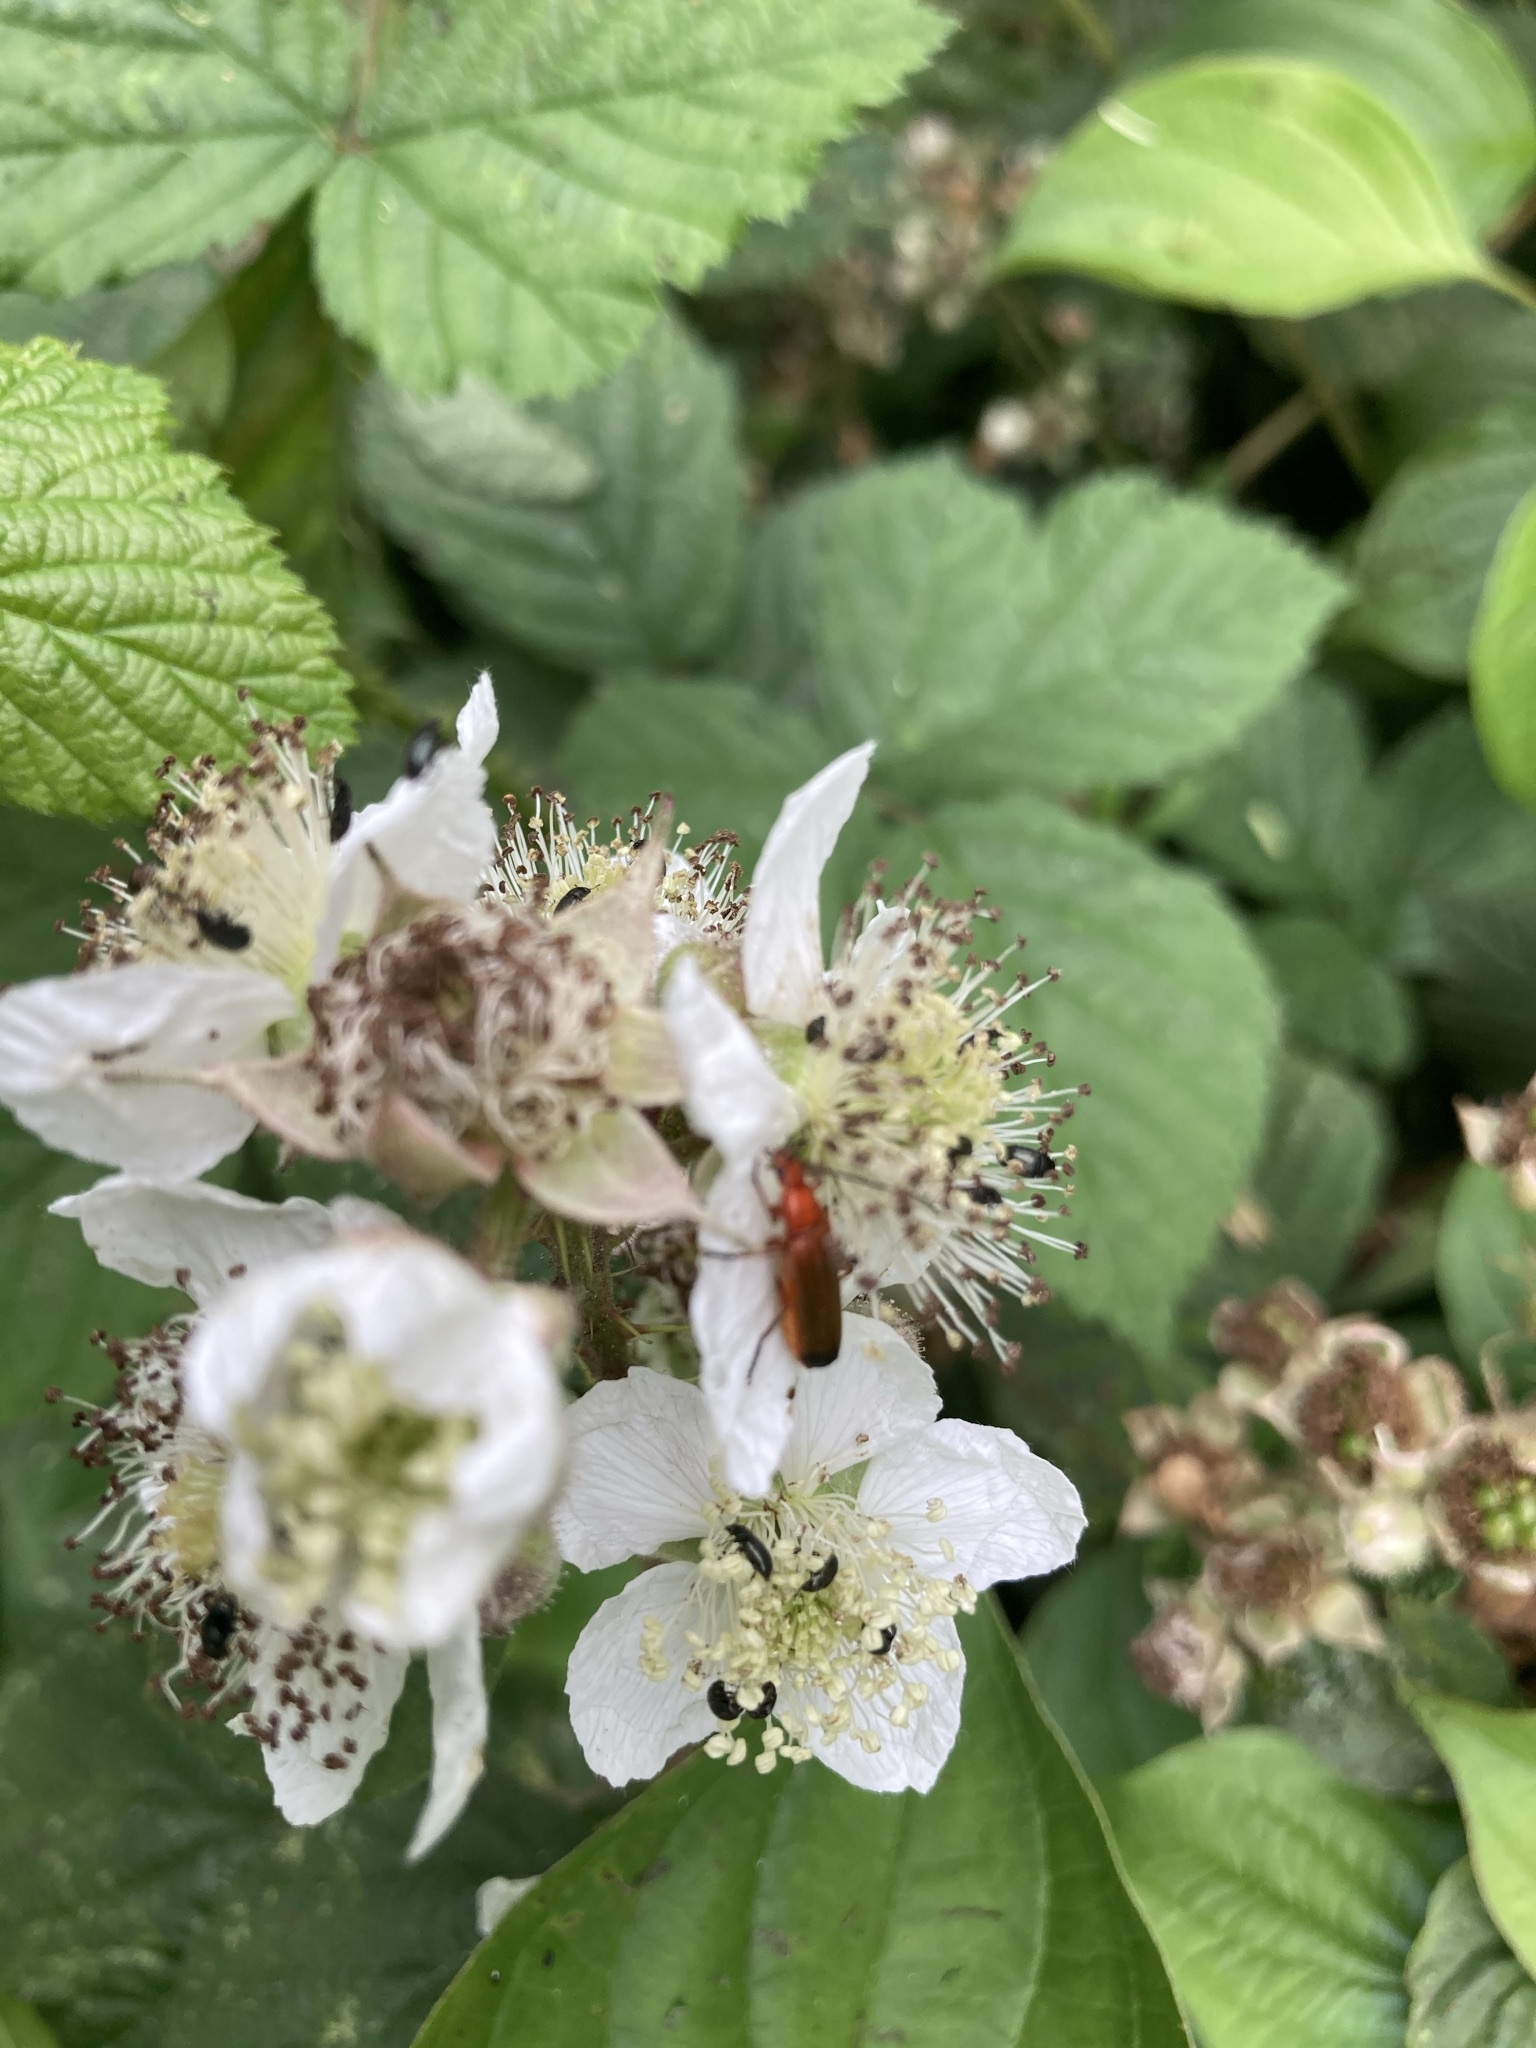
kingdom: Animalia
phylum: Arthropoda
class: Insecta
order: Coleoptera
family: Cantharidae
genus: Rhagonycha
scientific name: Rhagonycha fulva
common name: Common red soldier beetle
